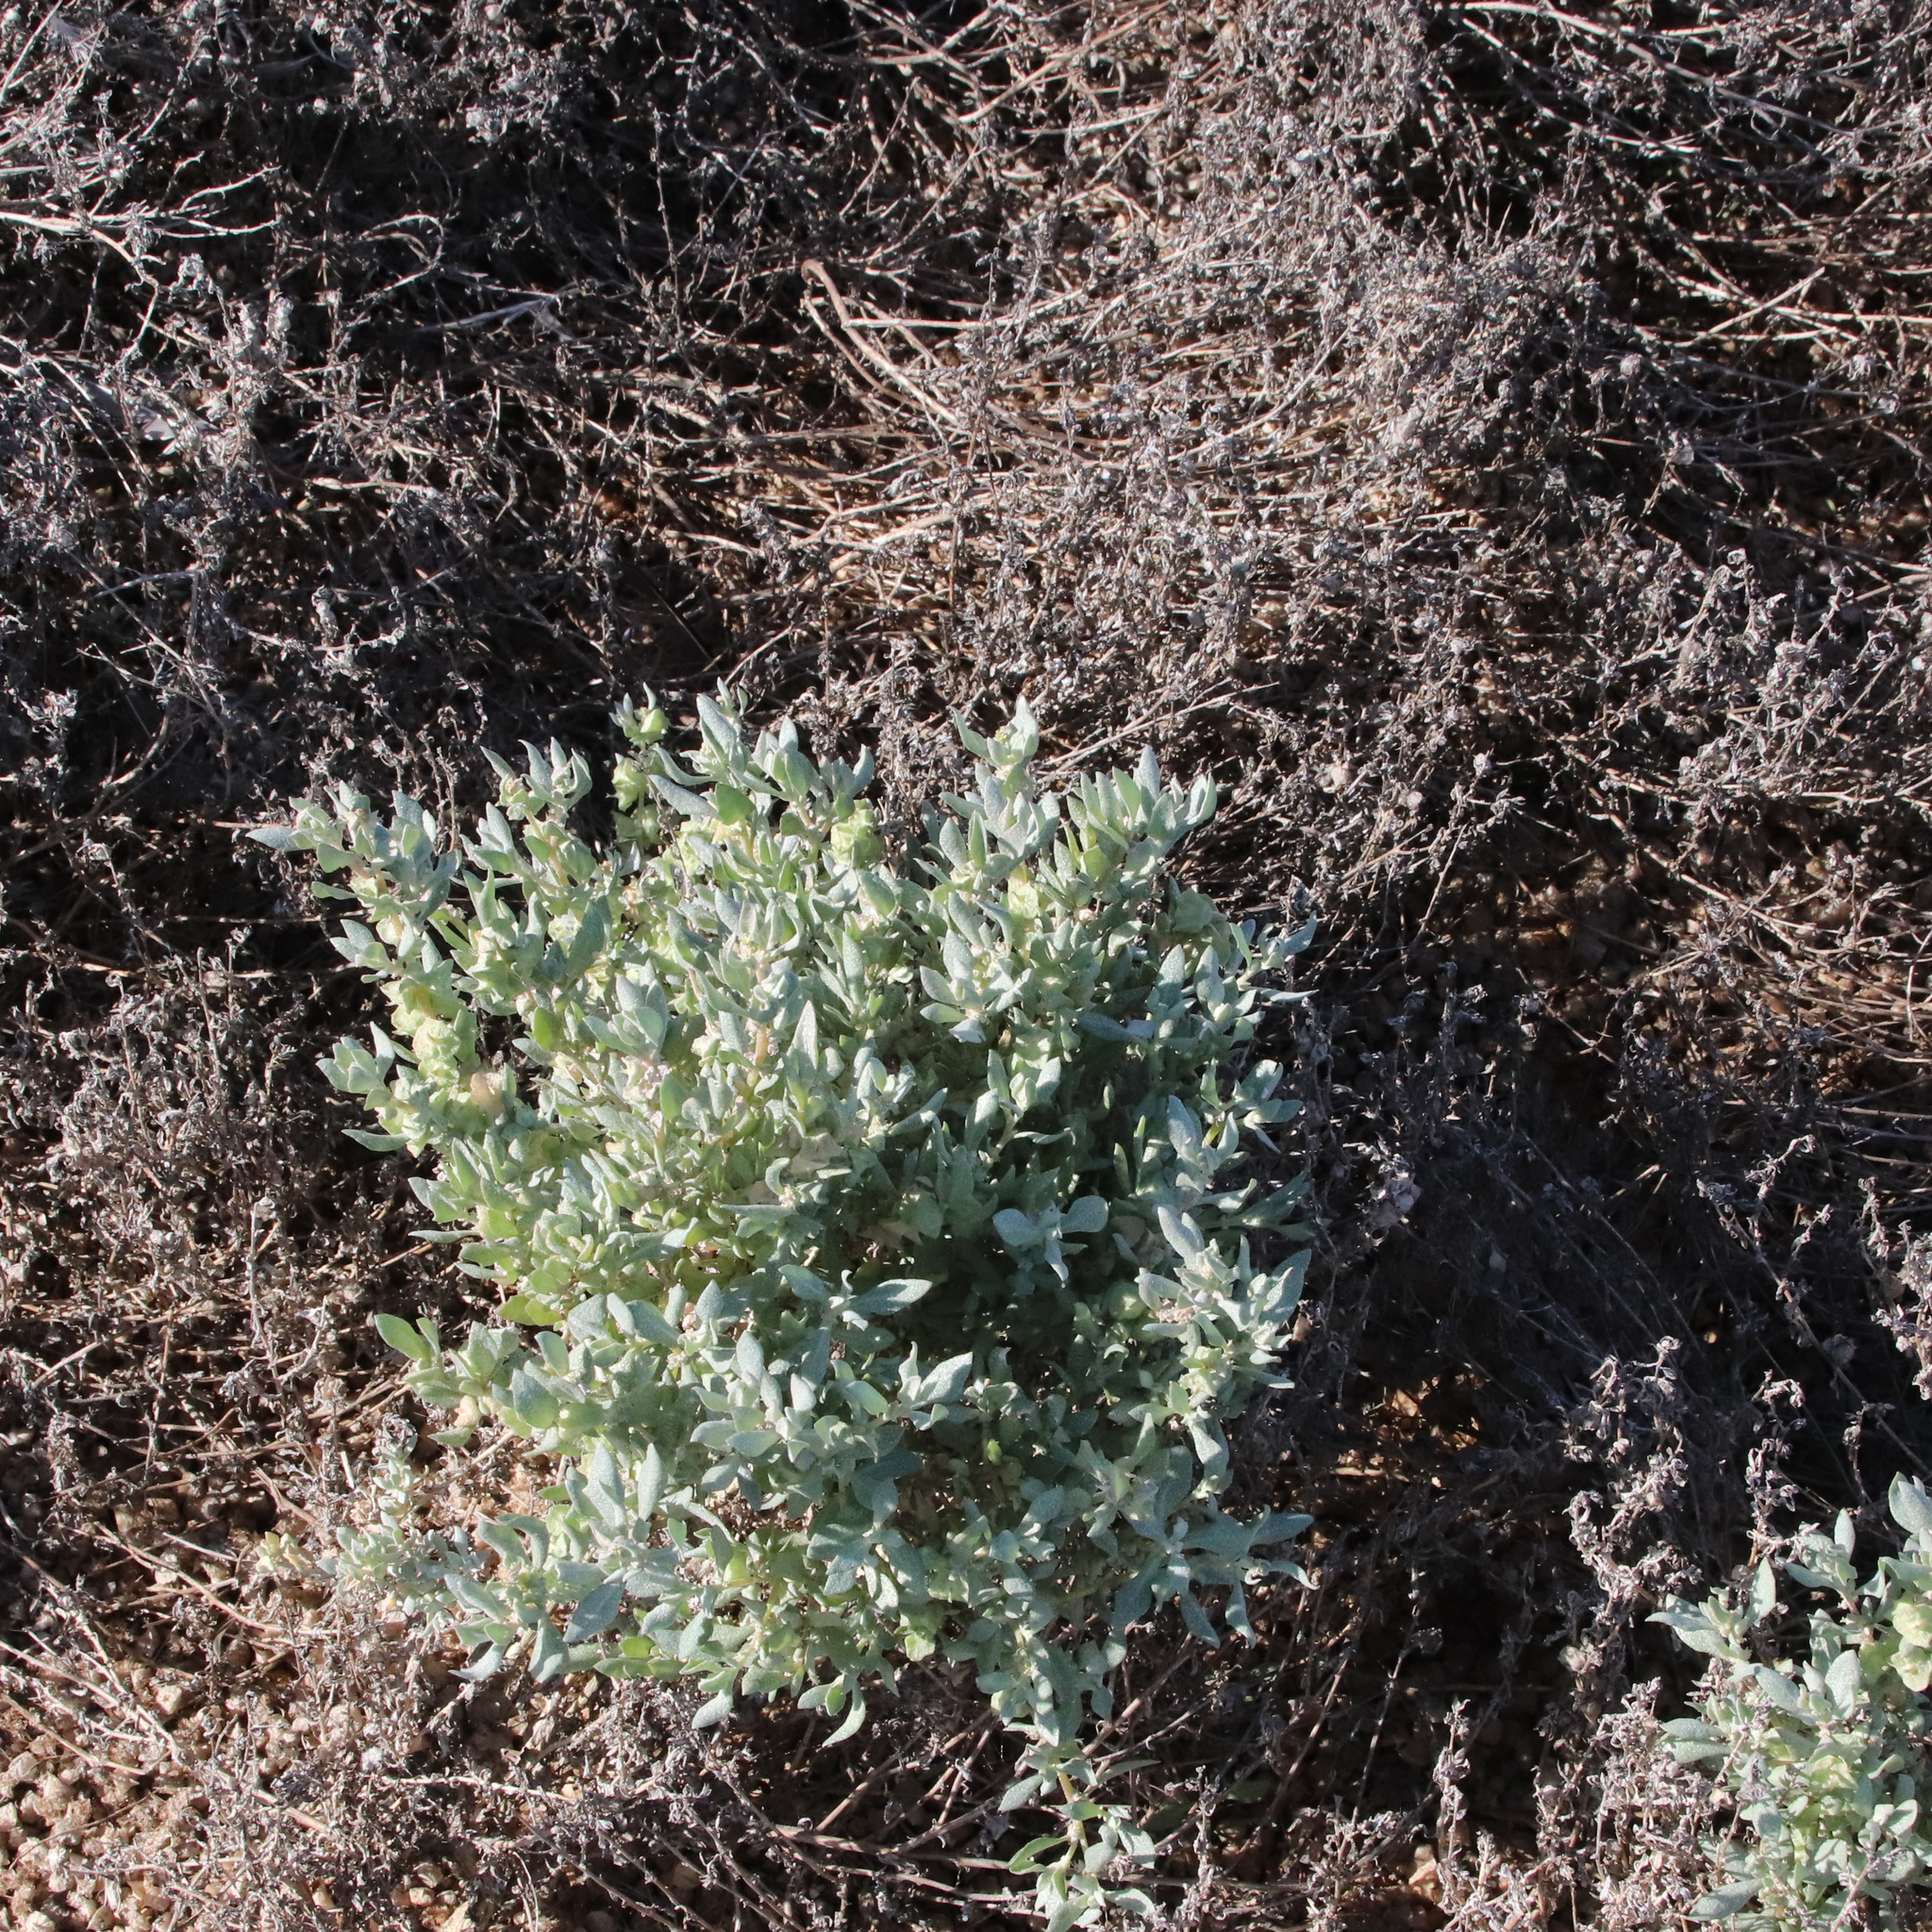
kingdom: Plantae
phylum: Tracheophyta
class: Magnoliopsida
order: Caryophyllales
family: Amaranthaceae
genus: Atriplex
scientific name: Atriplex lindleyi
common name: Lindley's saltbush
